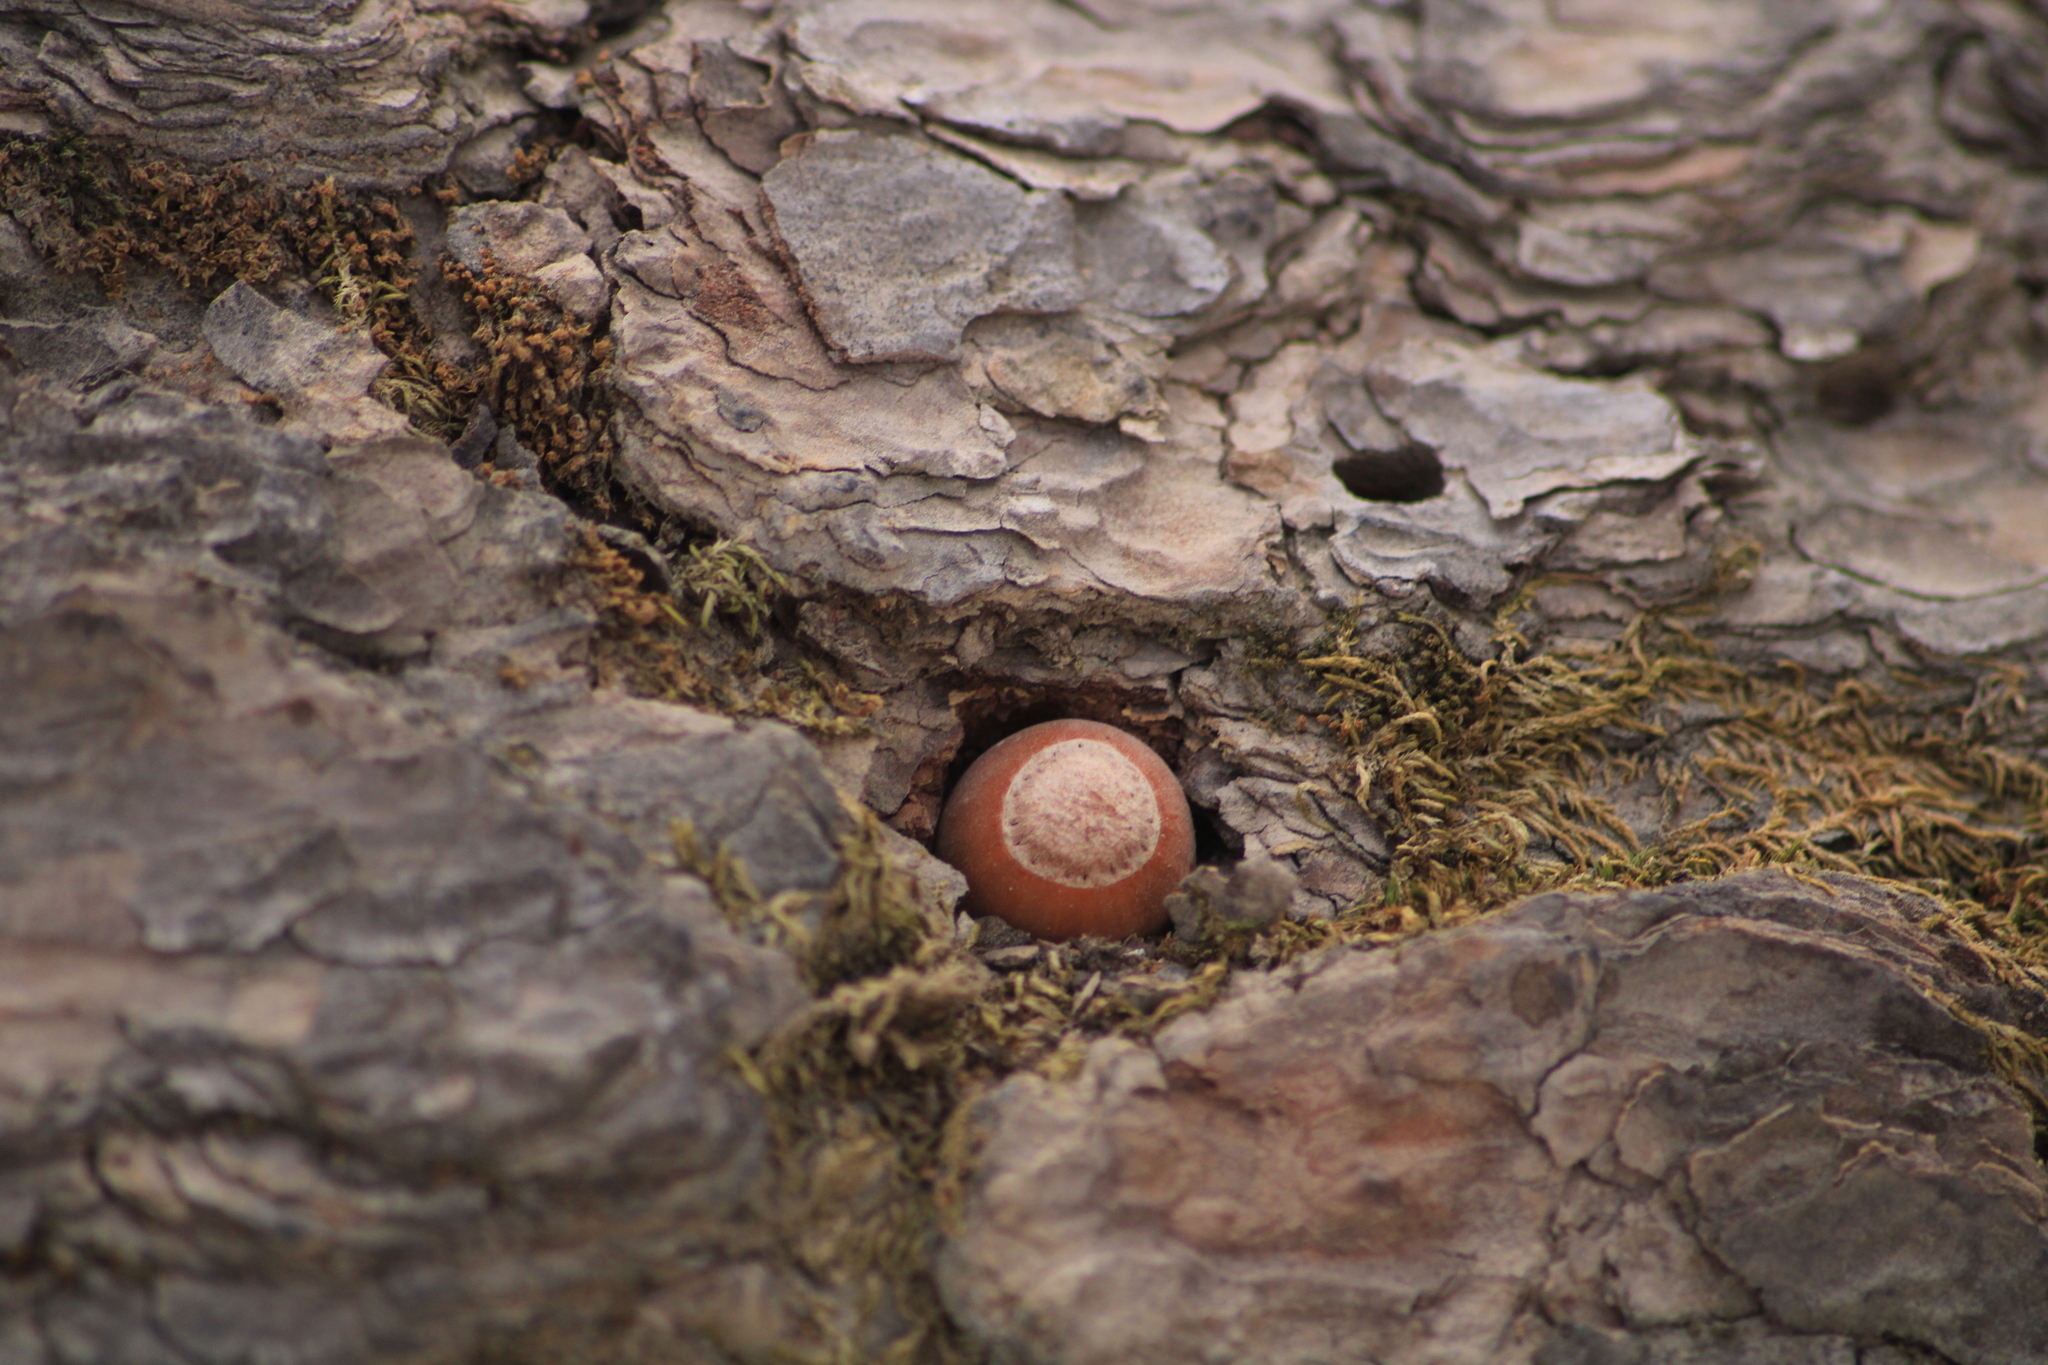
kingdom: Animalia
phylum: Chordata
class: Aves
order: Piciformes
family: Picidae
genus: Melanerpes
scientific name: Melanerpes formicivorus
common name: Acorn woodpecker
